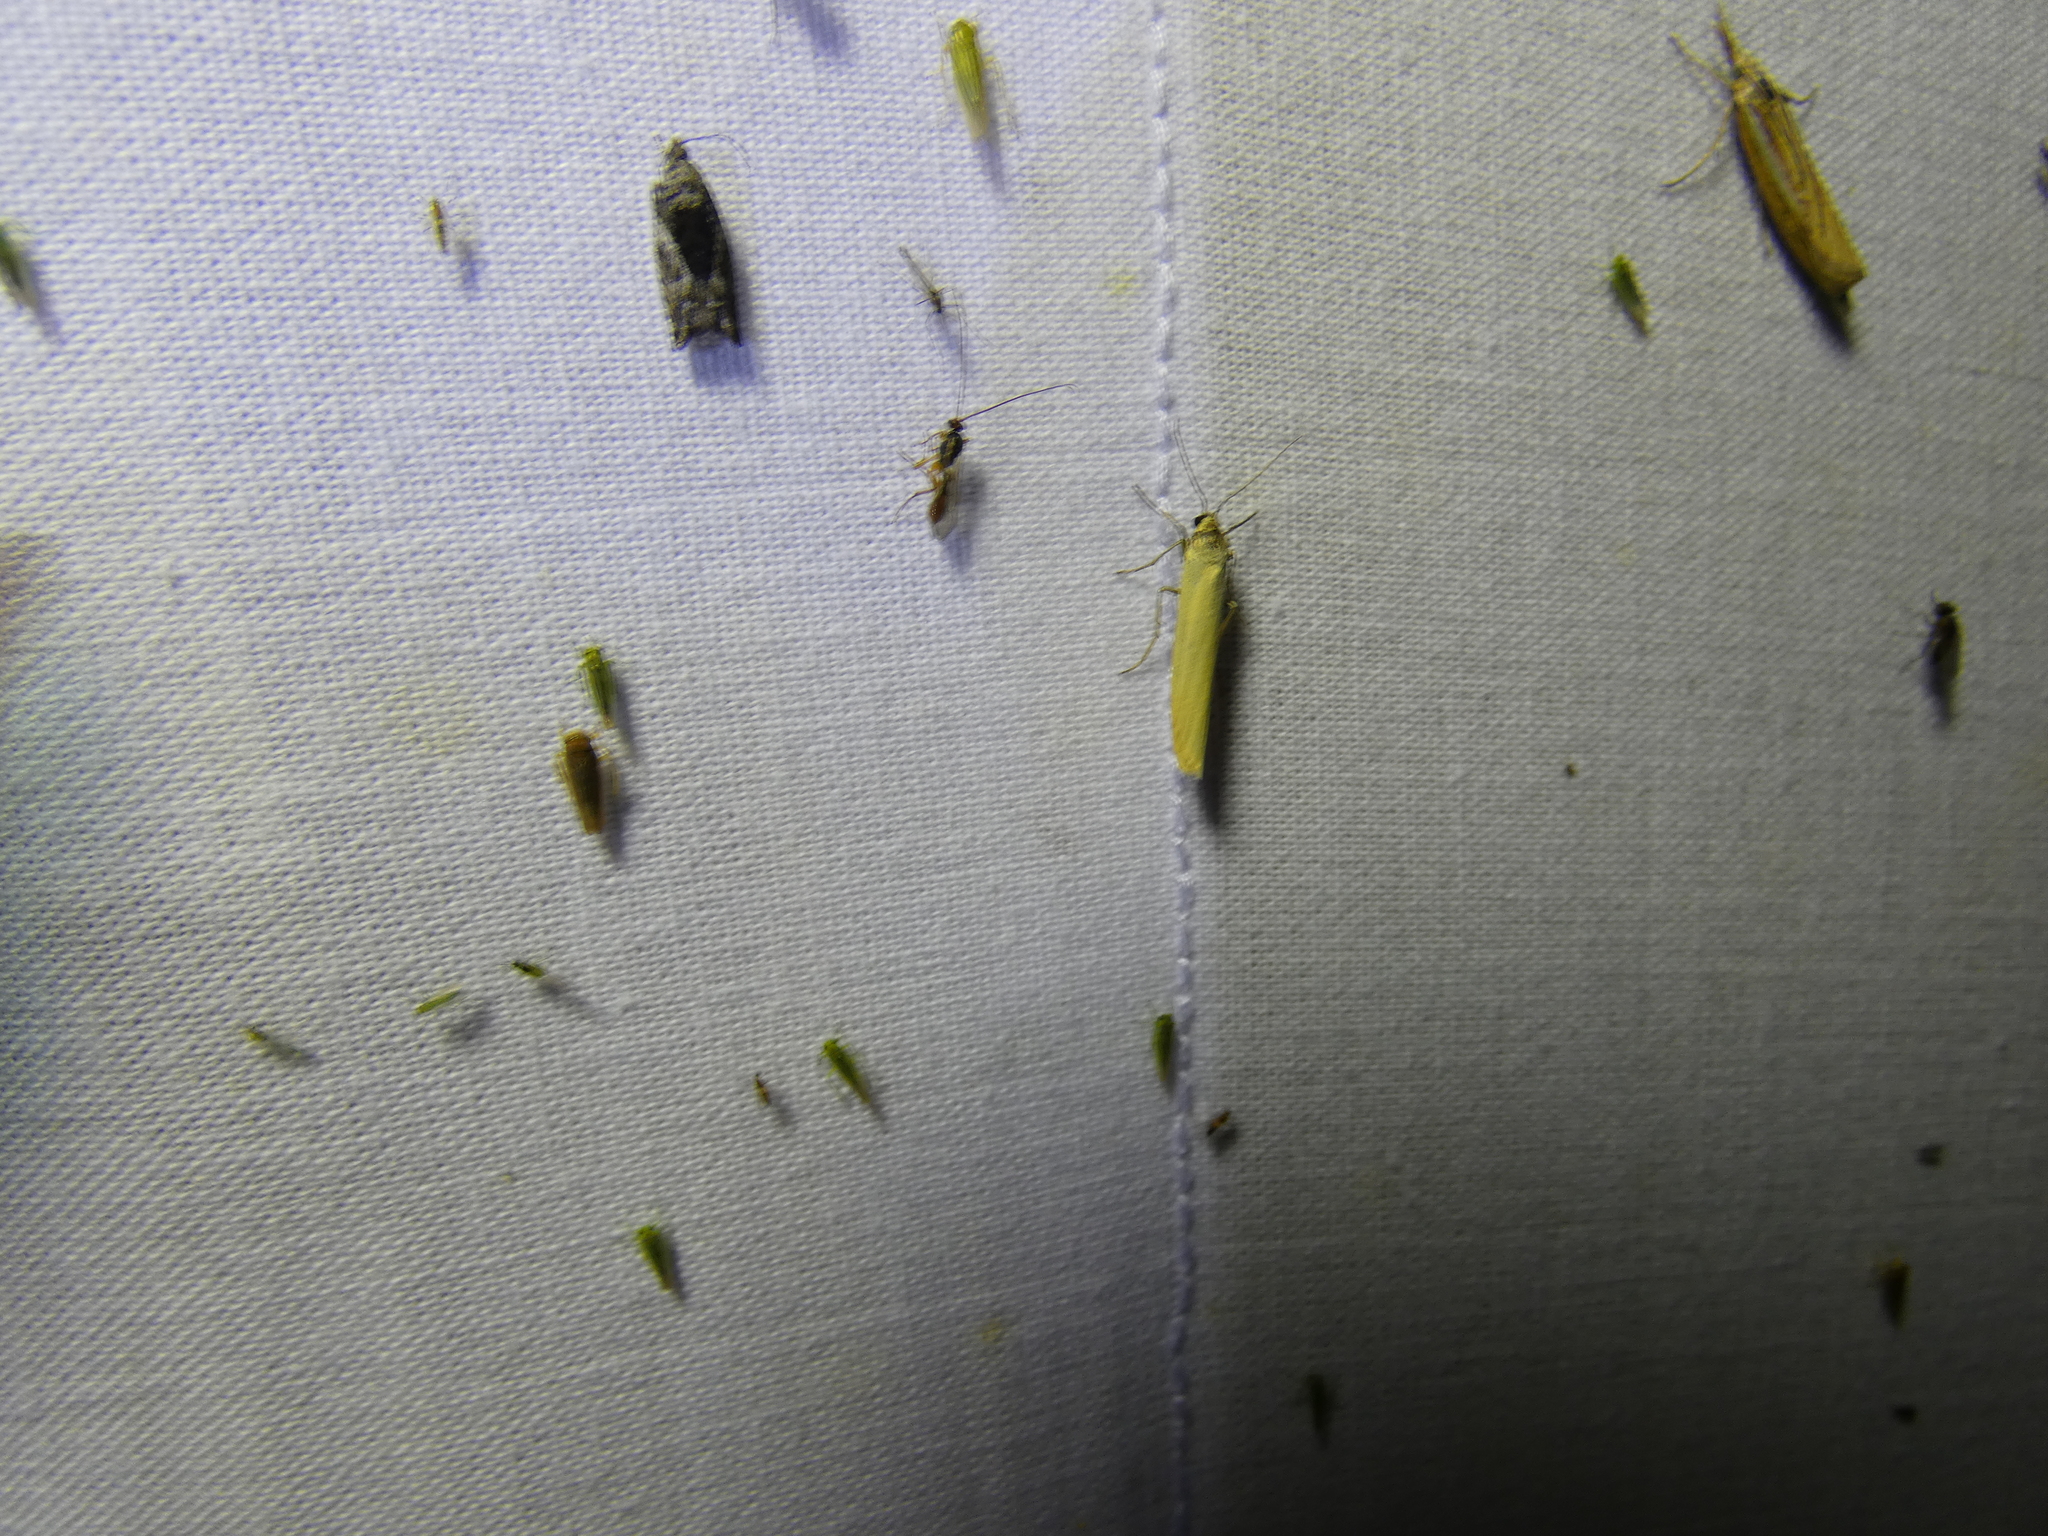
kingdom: Animalia
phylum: Arthropoda
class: Insecta
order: Lepidoptera
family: Erebidae
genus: Indalia
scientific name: Indalia lutarella
